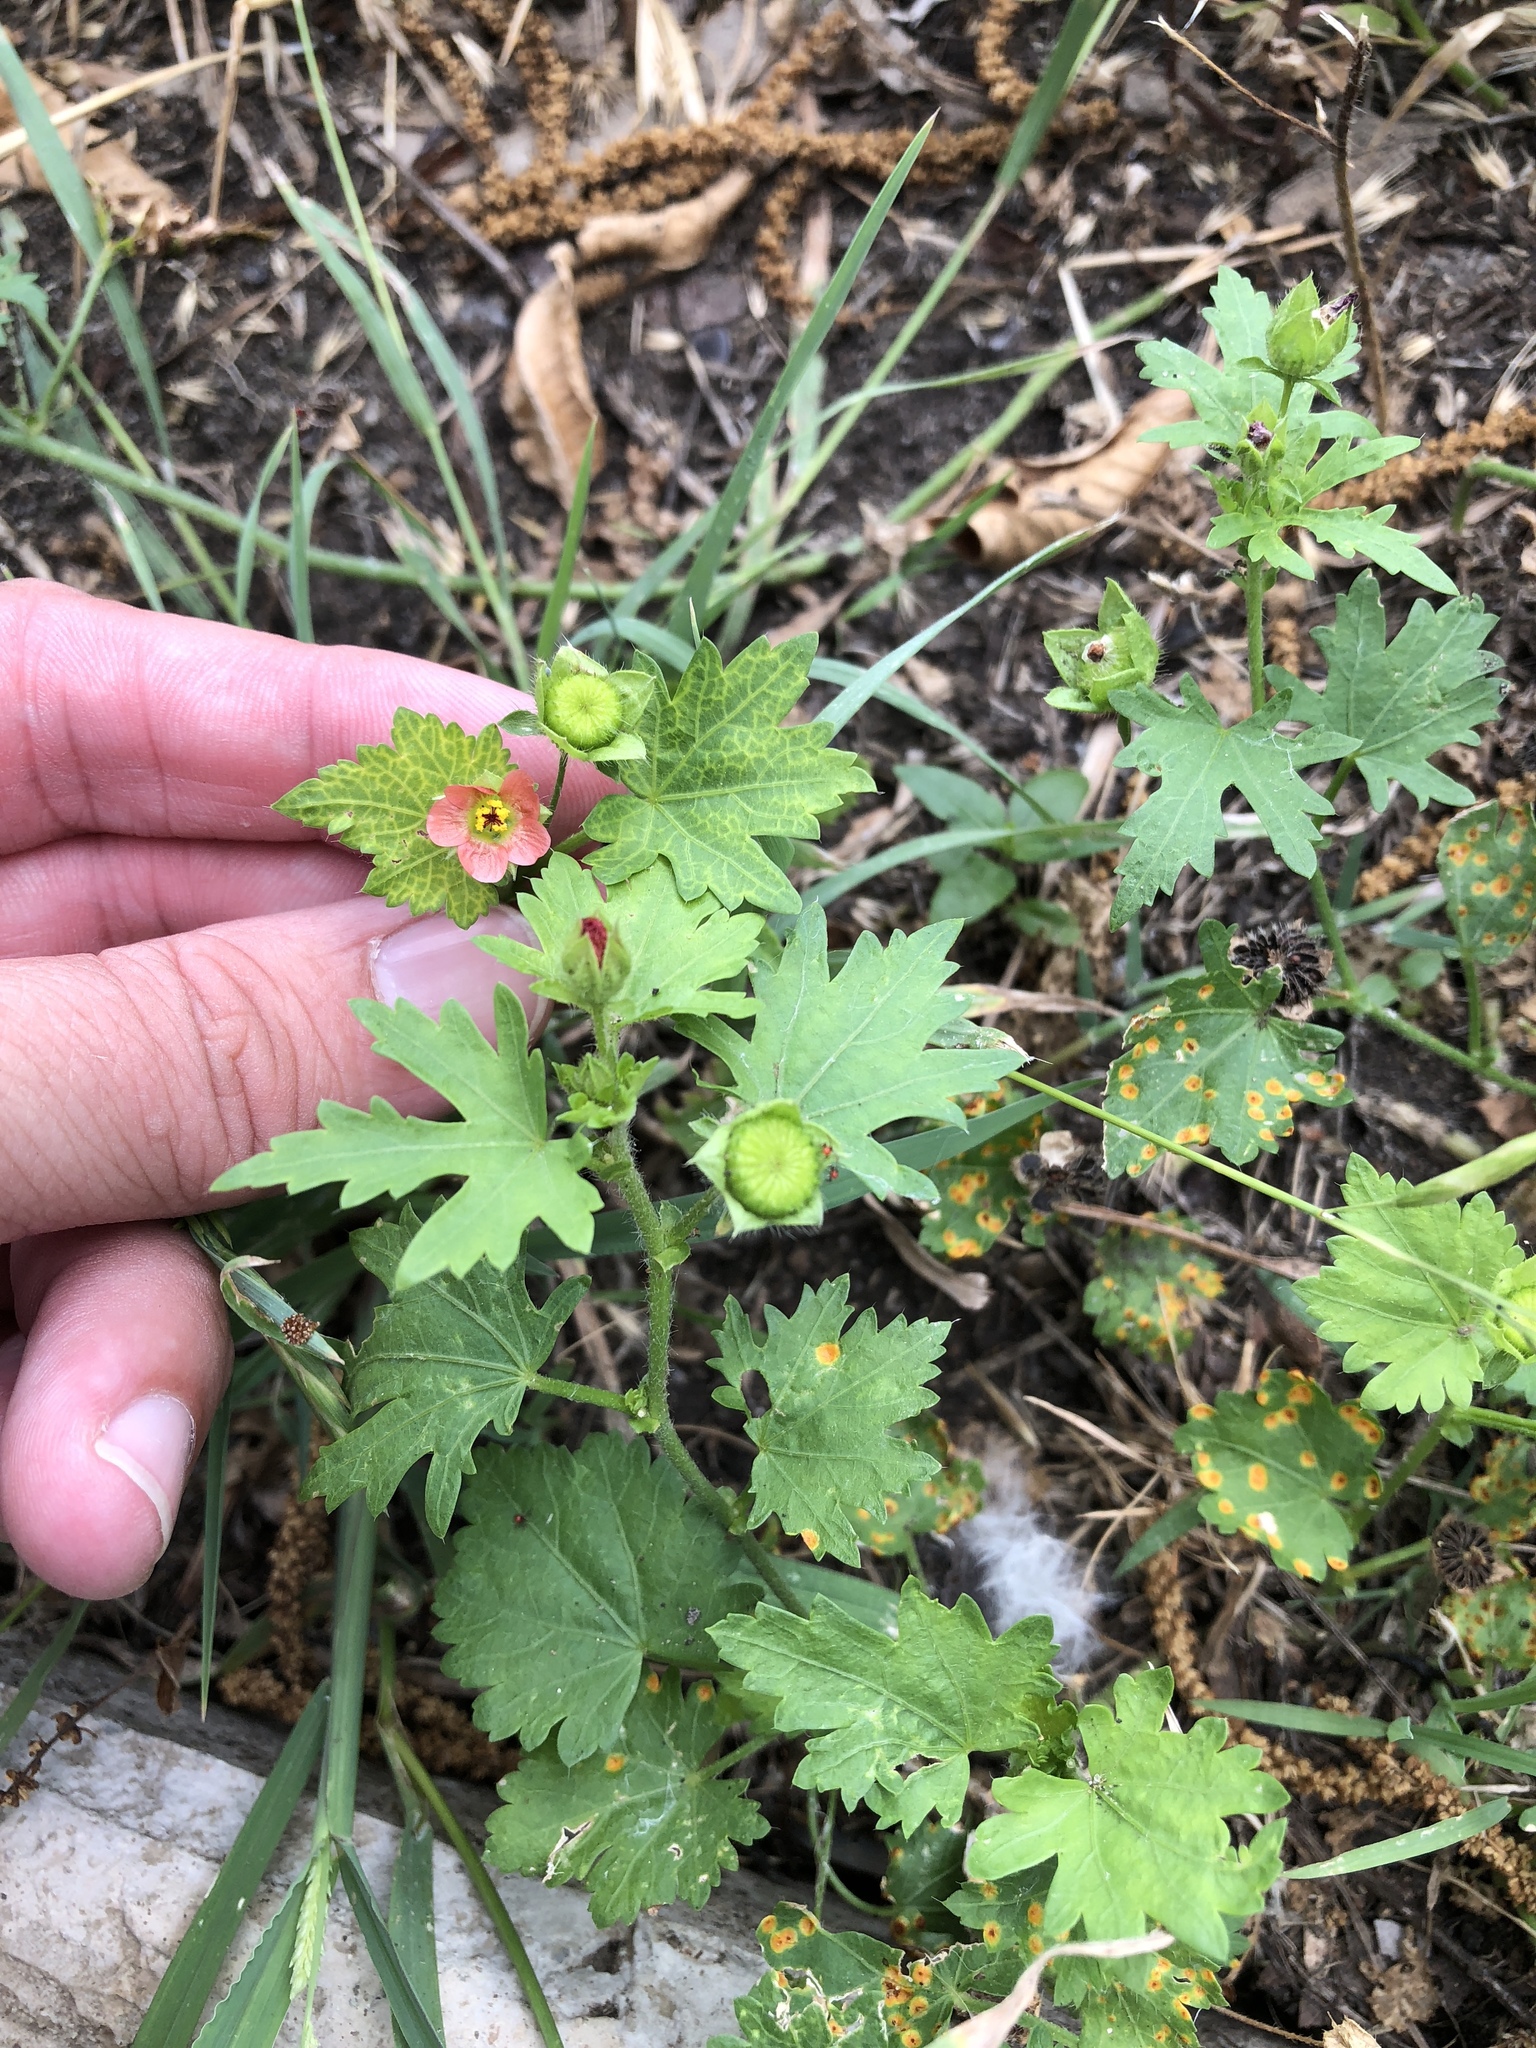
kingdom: Plantae
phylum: Tracheophyta
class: Magnoliopsida
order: Malvales
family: Malvaceae
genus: Modiola
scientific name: Modiola caroliniana
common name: Carolina bristlemallow
